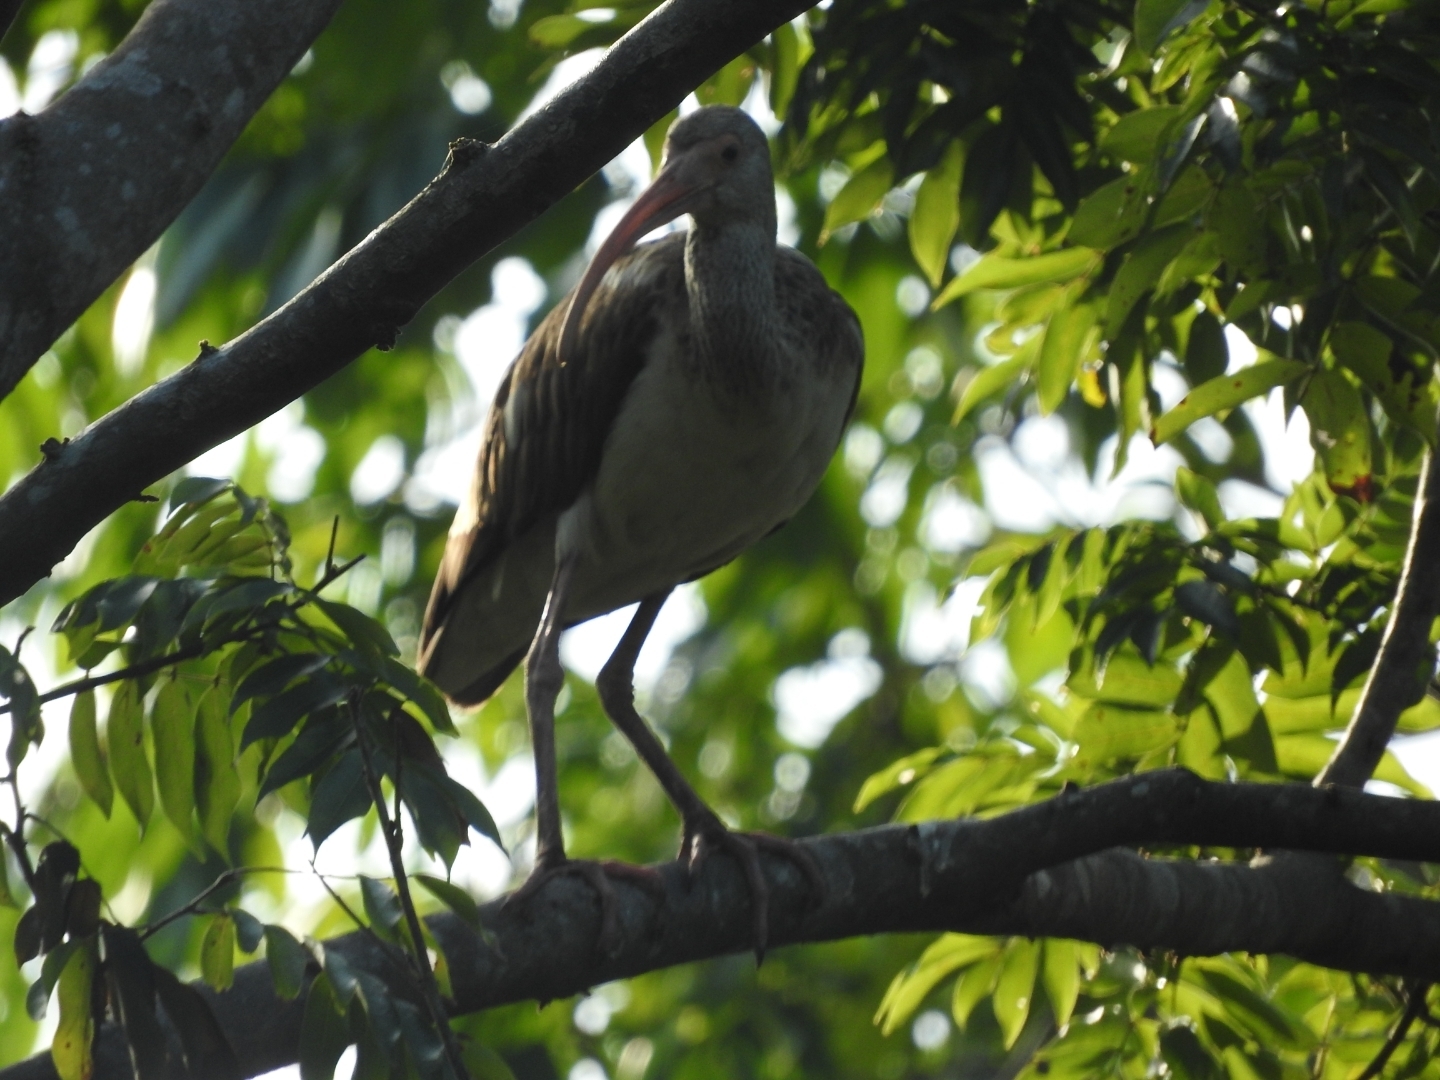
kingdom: Animalia
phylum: Chordata
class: Aves
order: Pelecaniformes
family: Threskiornithidae
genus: Eudocimus
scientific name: Eudocimus albus
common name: White ibis
